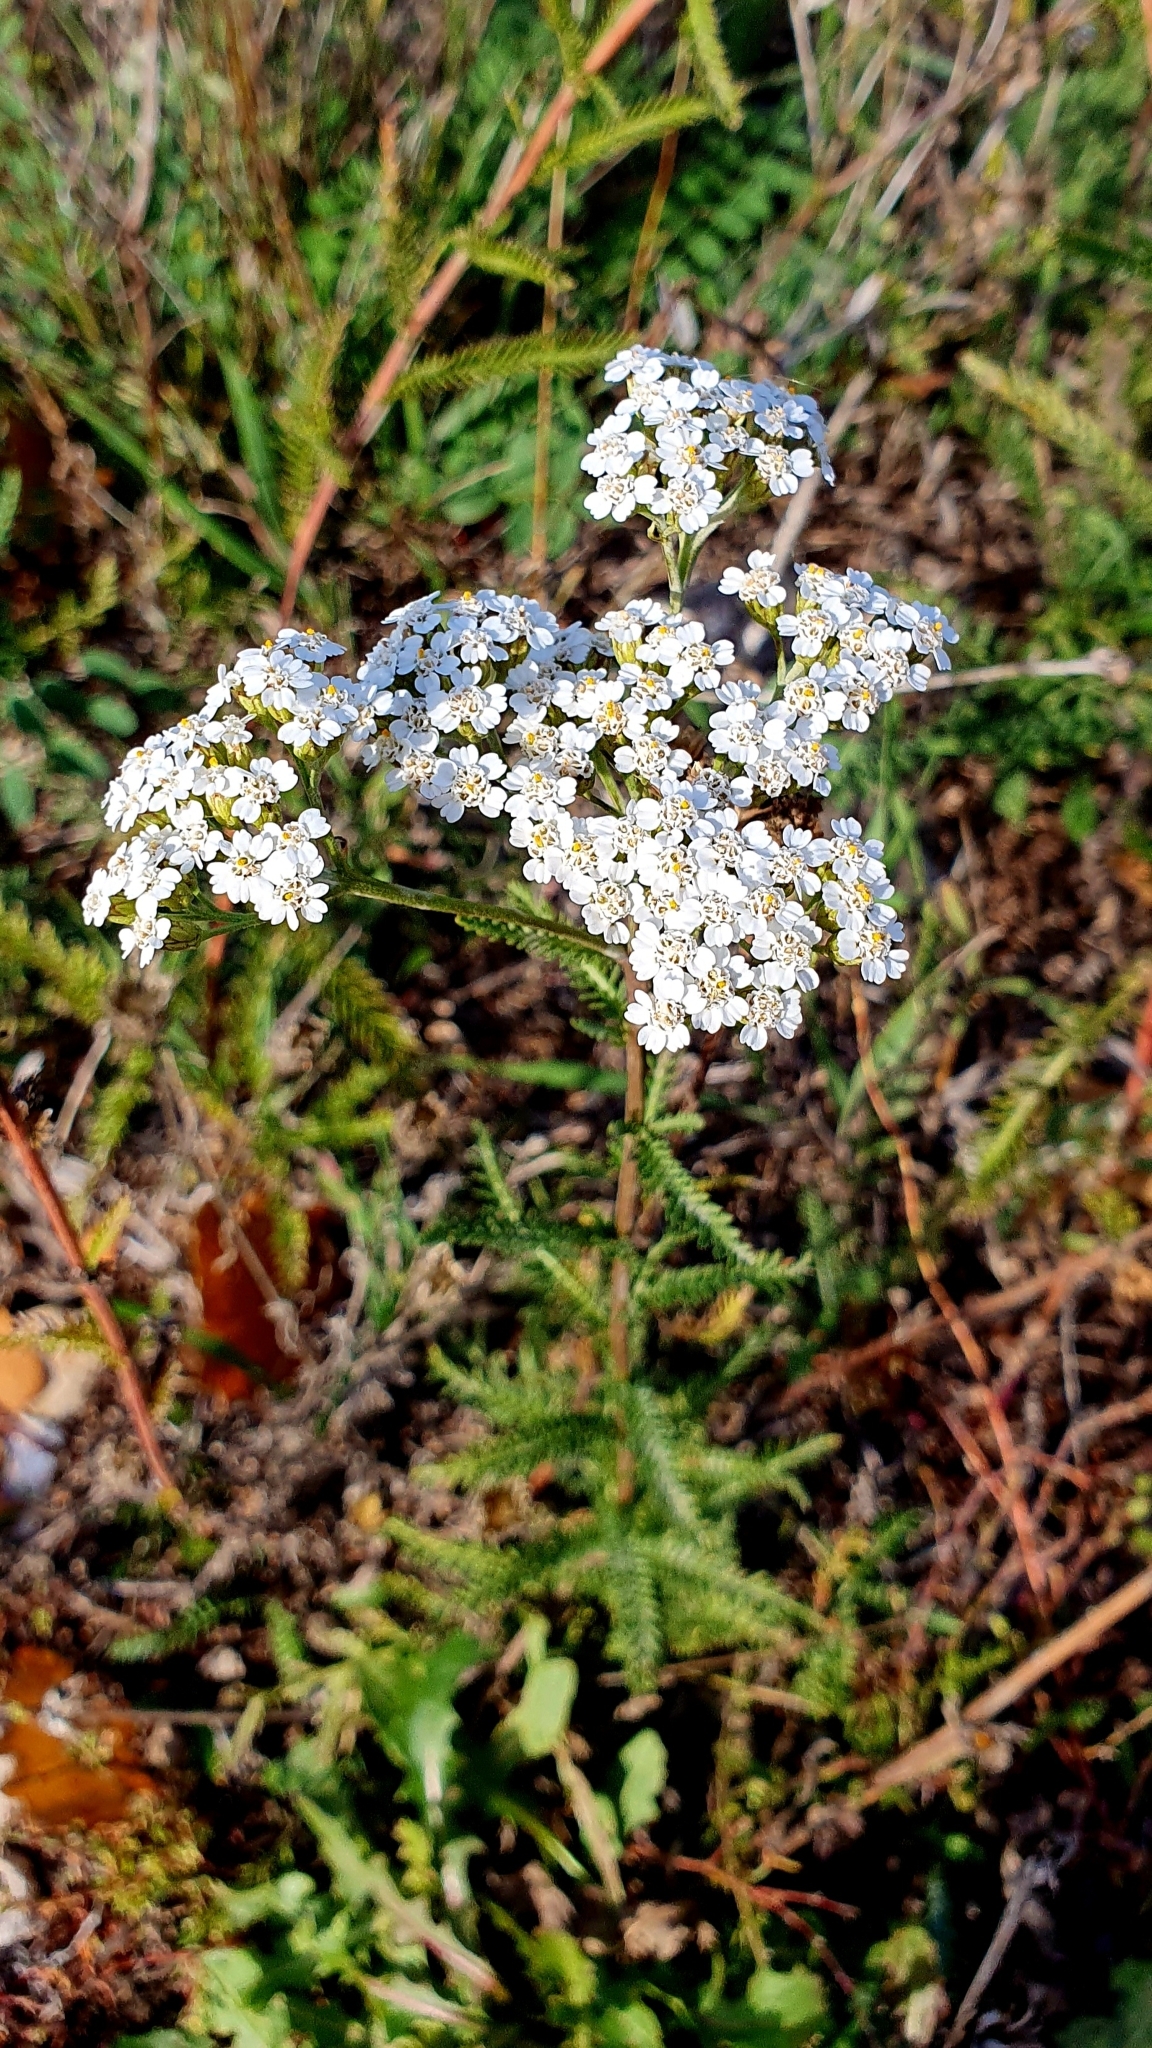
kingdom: Plantae
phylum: Tracheophyta
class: Magnoliopsida
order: Asterales
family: Asteraceae
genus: Achillea
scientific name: Achillea millefolium
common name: Yarrow
